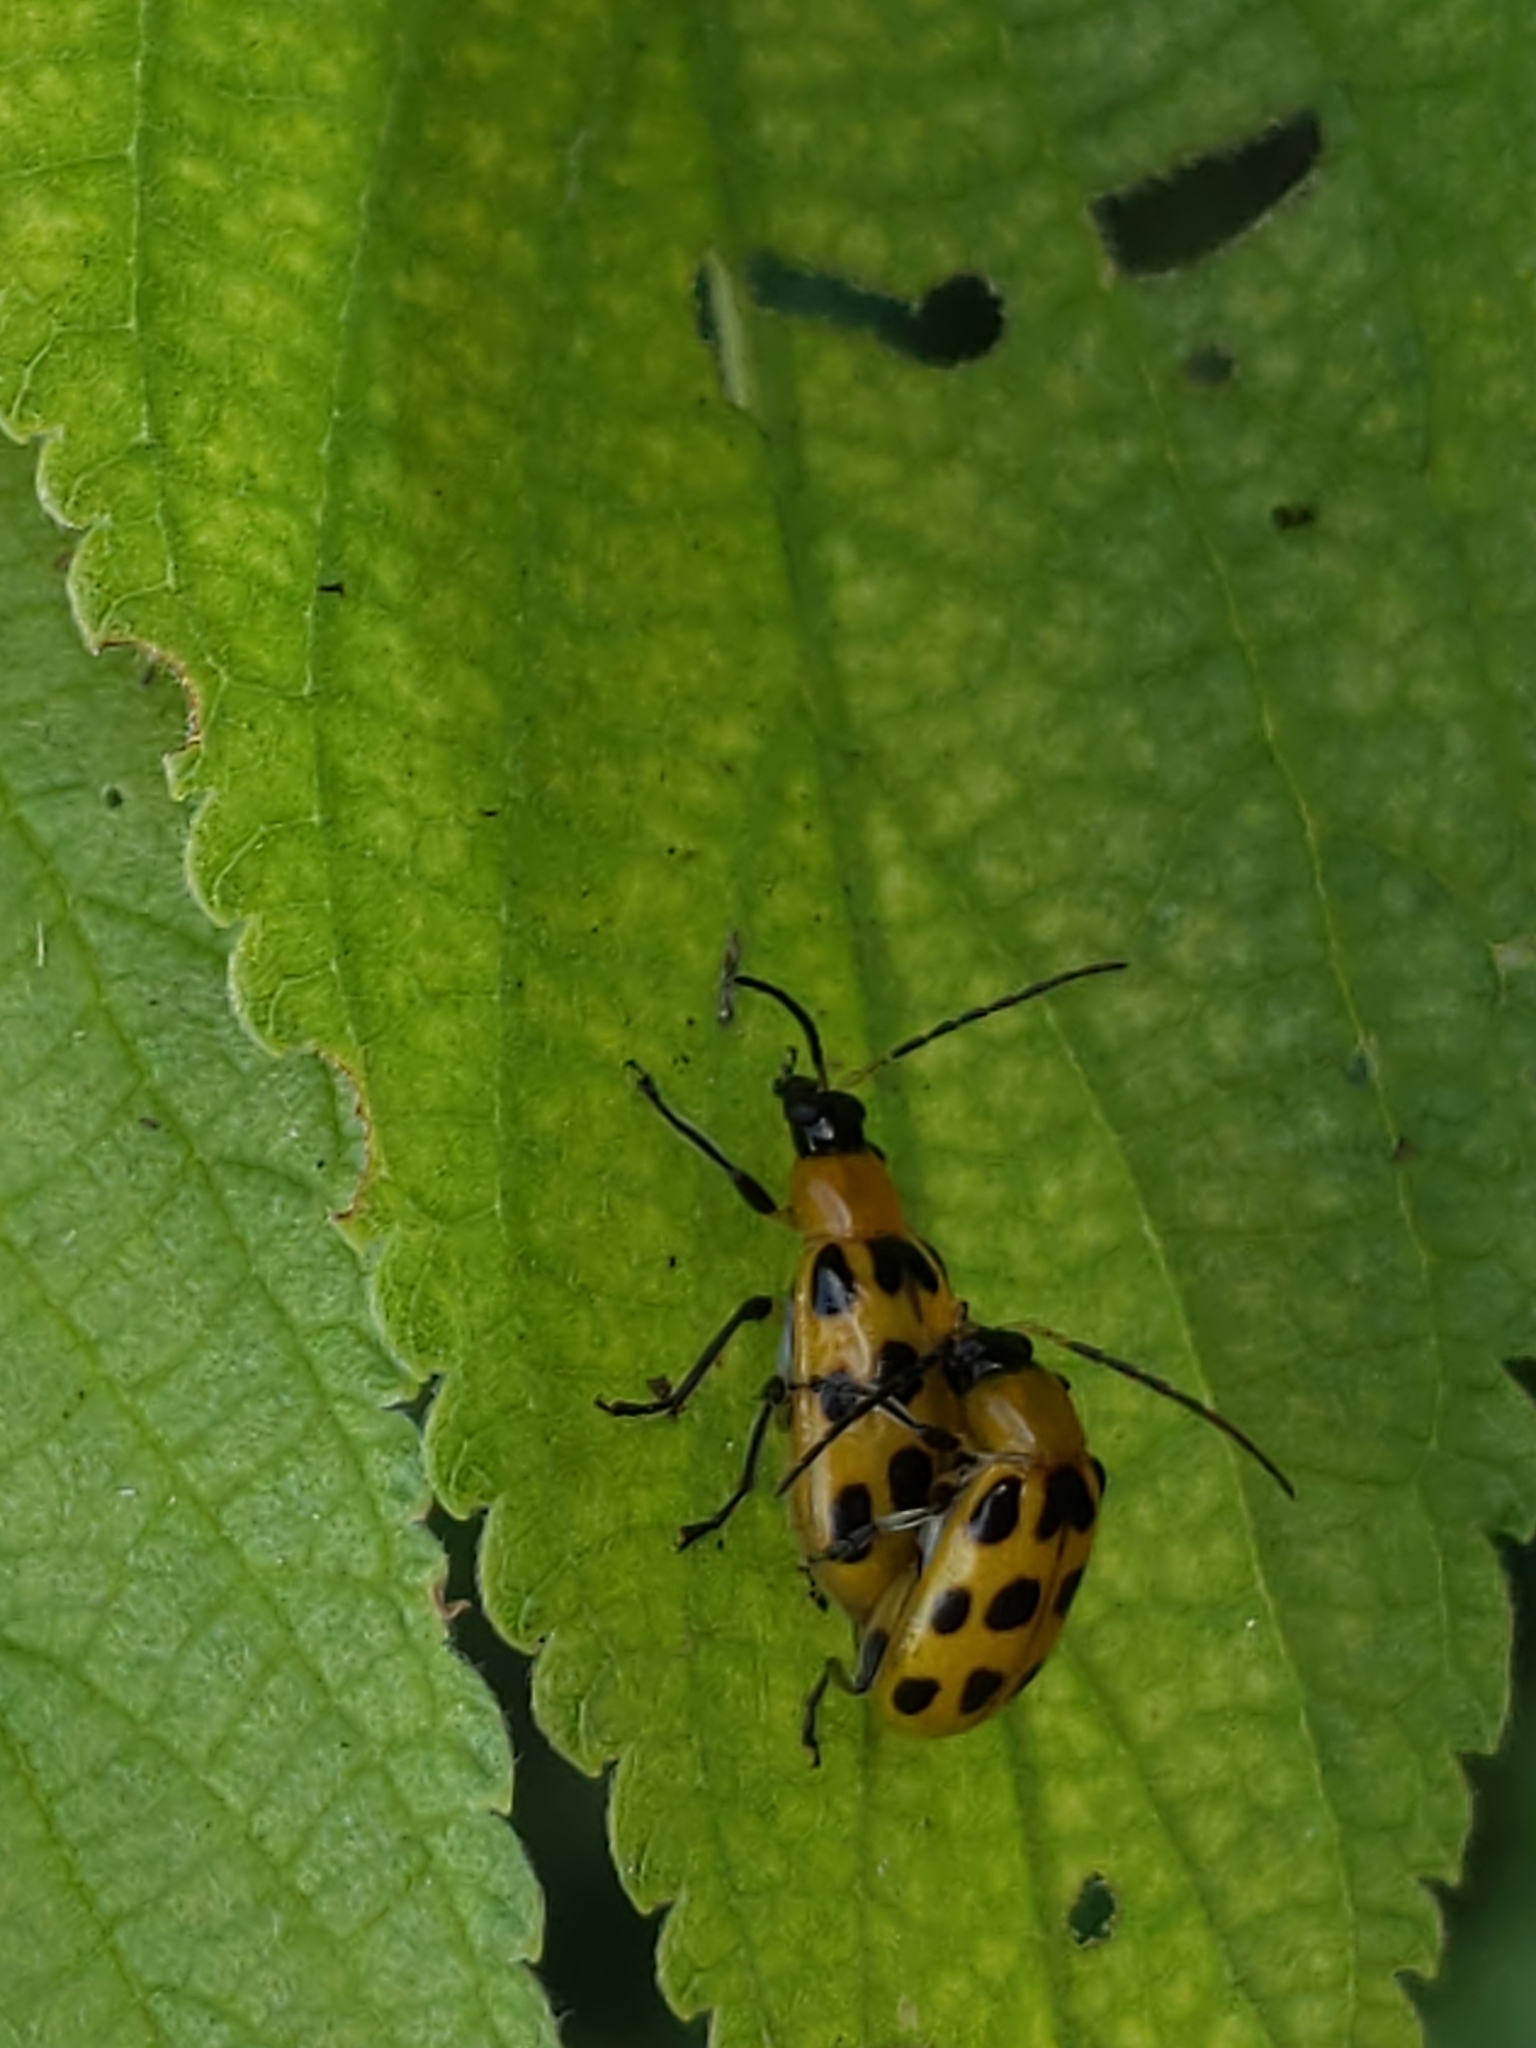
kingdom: Animalia
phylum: Arthropoda
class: Insecta
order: Coleoptera
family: Chrysomelidae
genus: Diabrotica
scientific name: Diabrotica undecimpunctata
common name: Spotted cucumber beetle
